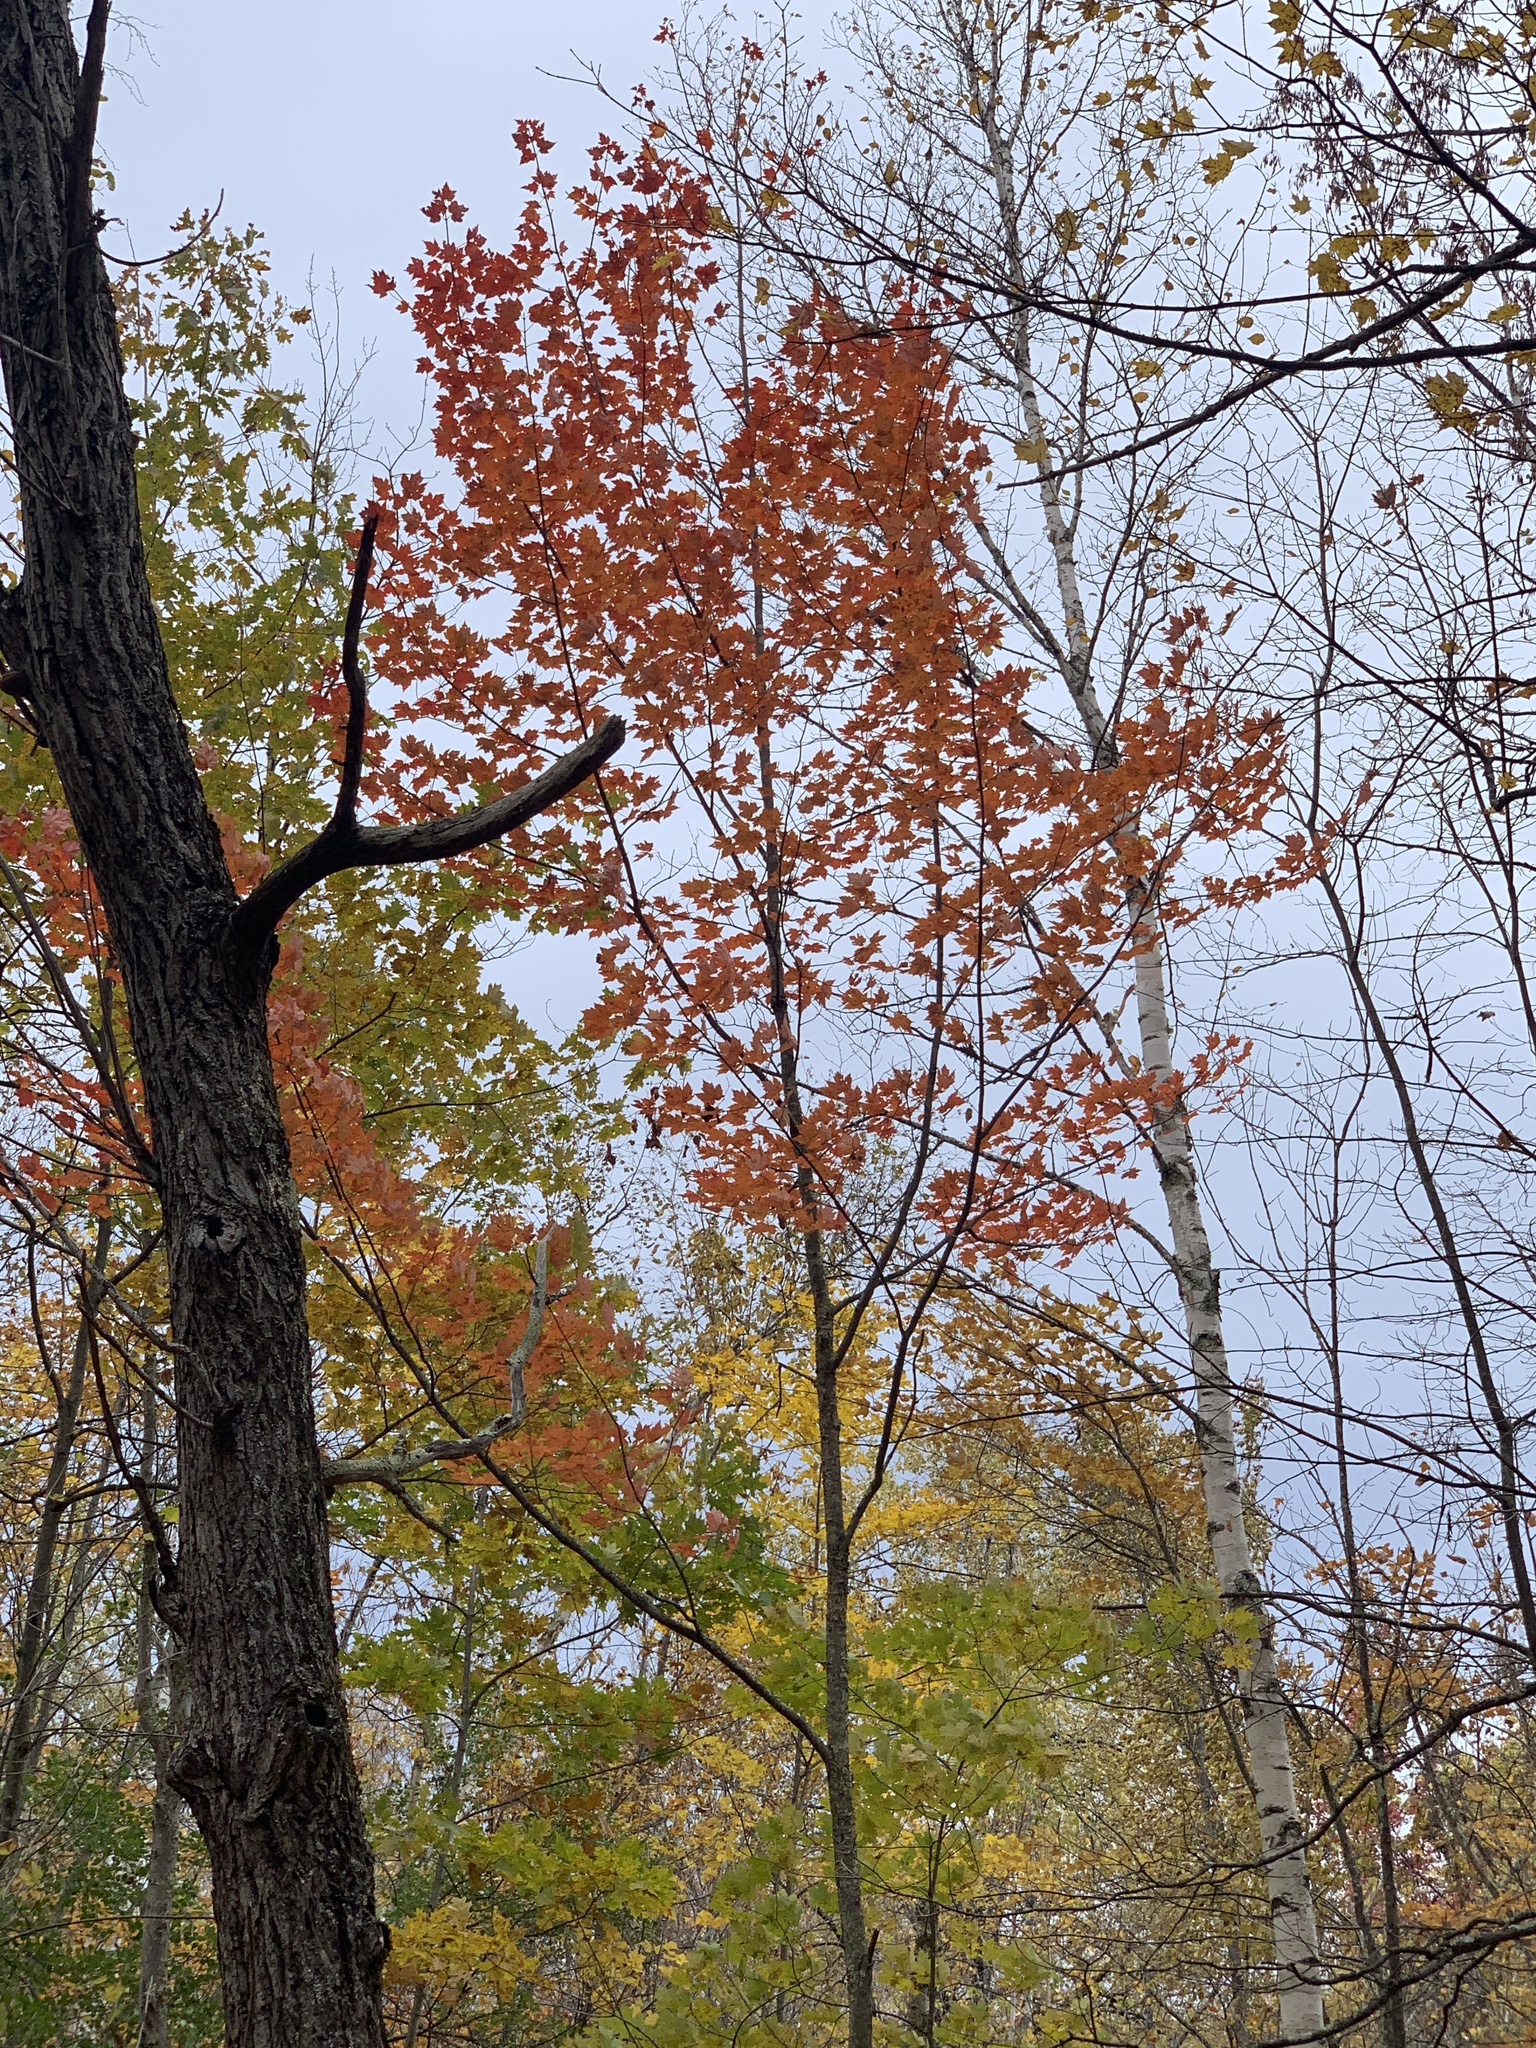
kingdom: Plantae
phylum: Tracheophyta
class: Magnoliopsida
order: Sapindales
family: Sapindaceae
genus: Acer
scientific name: Acer rubrum
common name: Red maple
